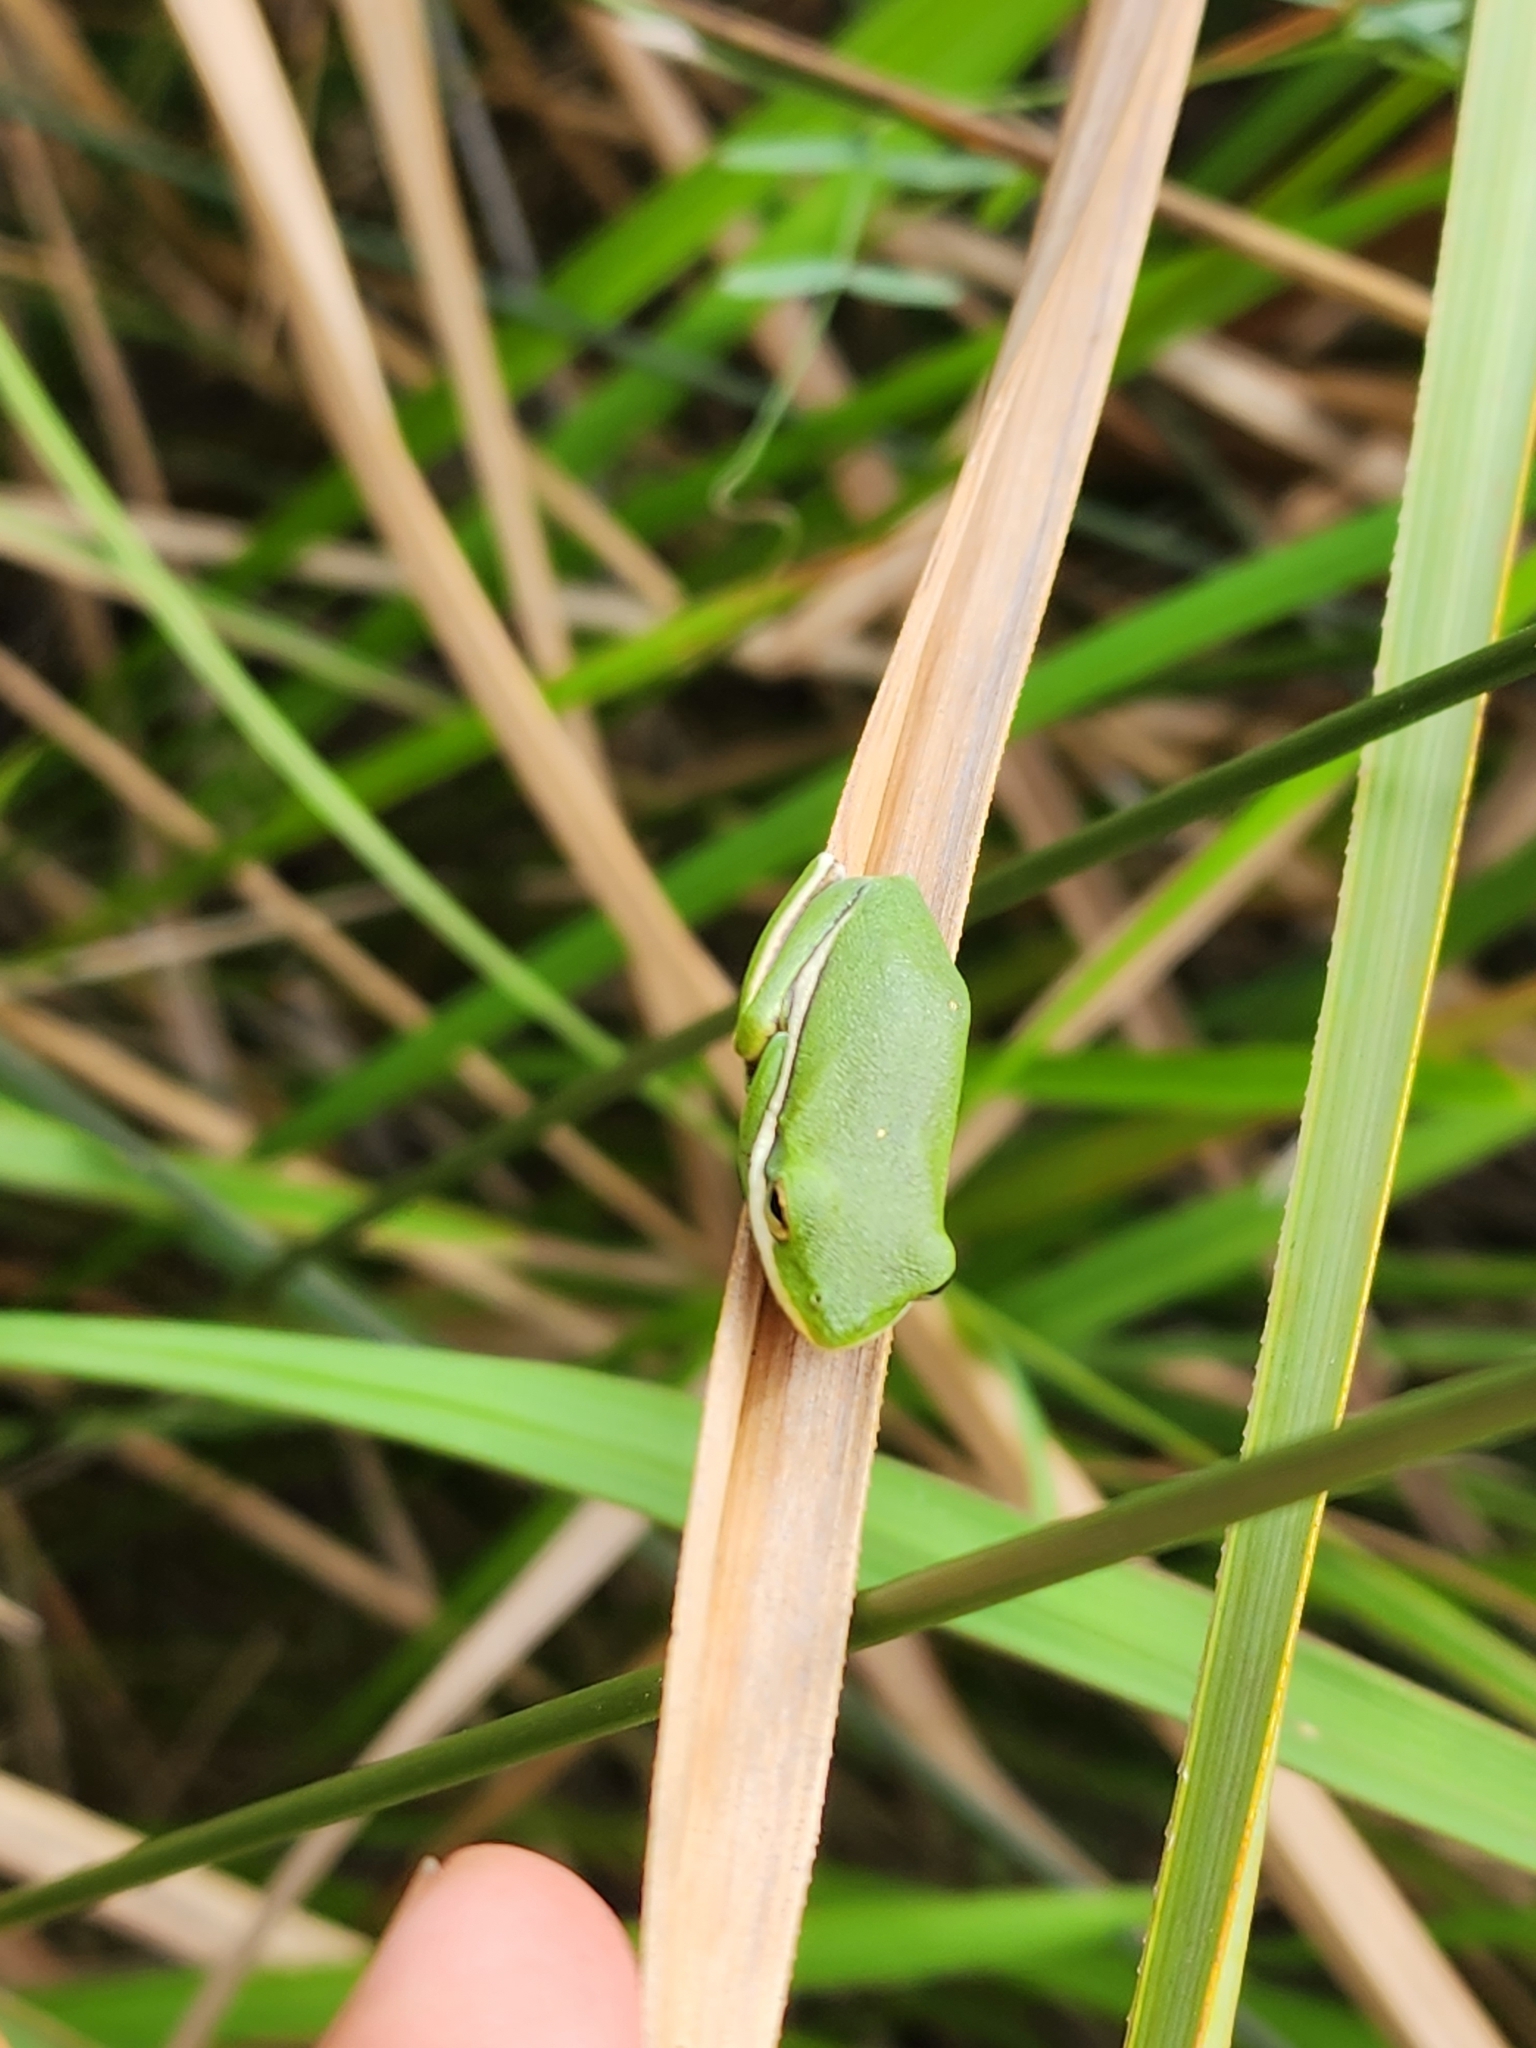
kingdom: Animalia
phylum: Chordata
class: Amphibia
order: Anura
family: Hylidae
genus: Dryophytes
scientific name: Dryophytes cinereus
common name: Green treefrog
